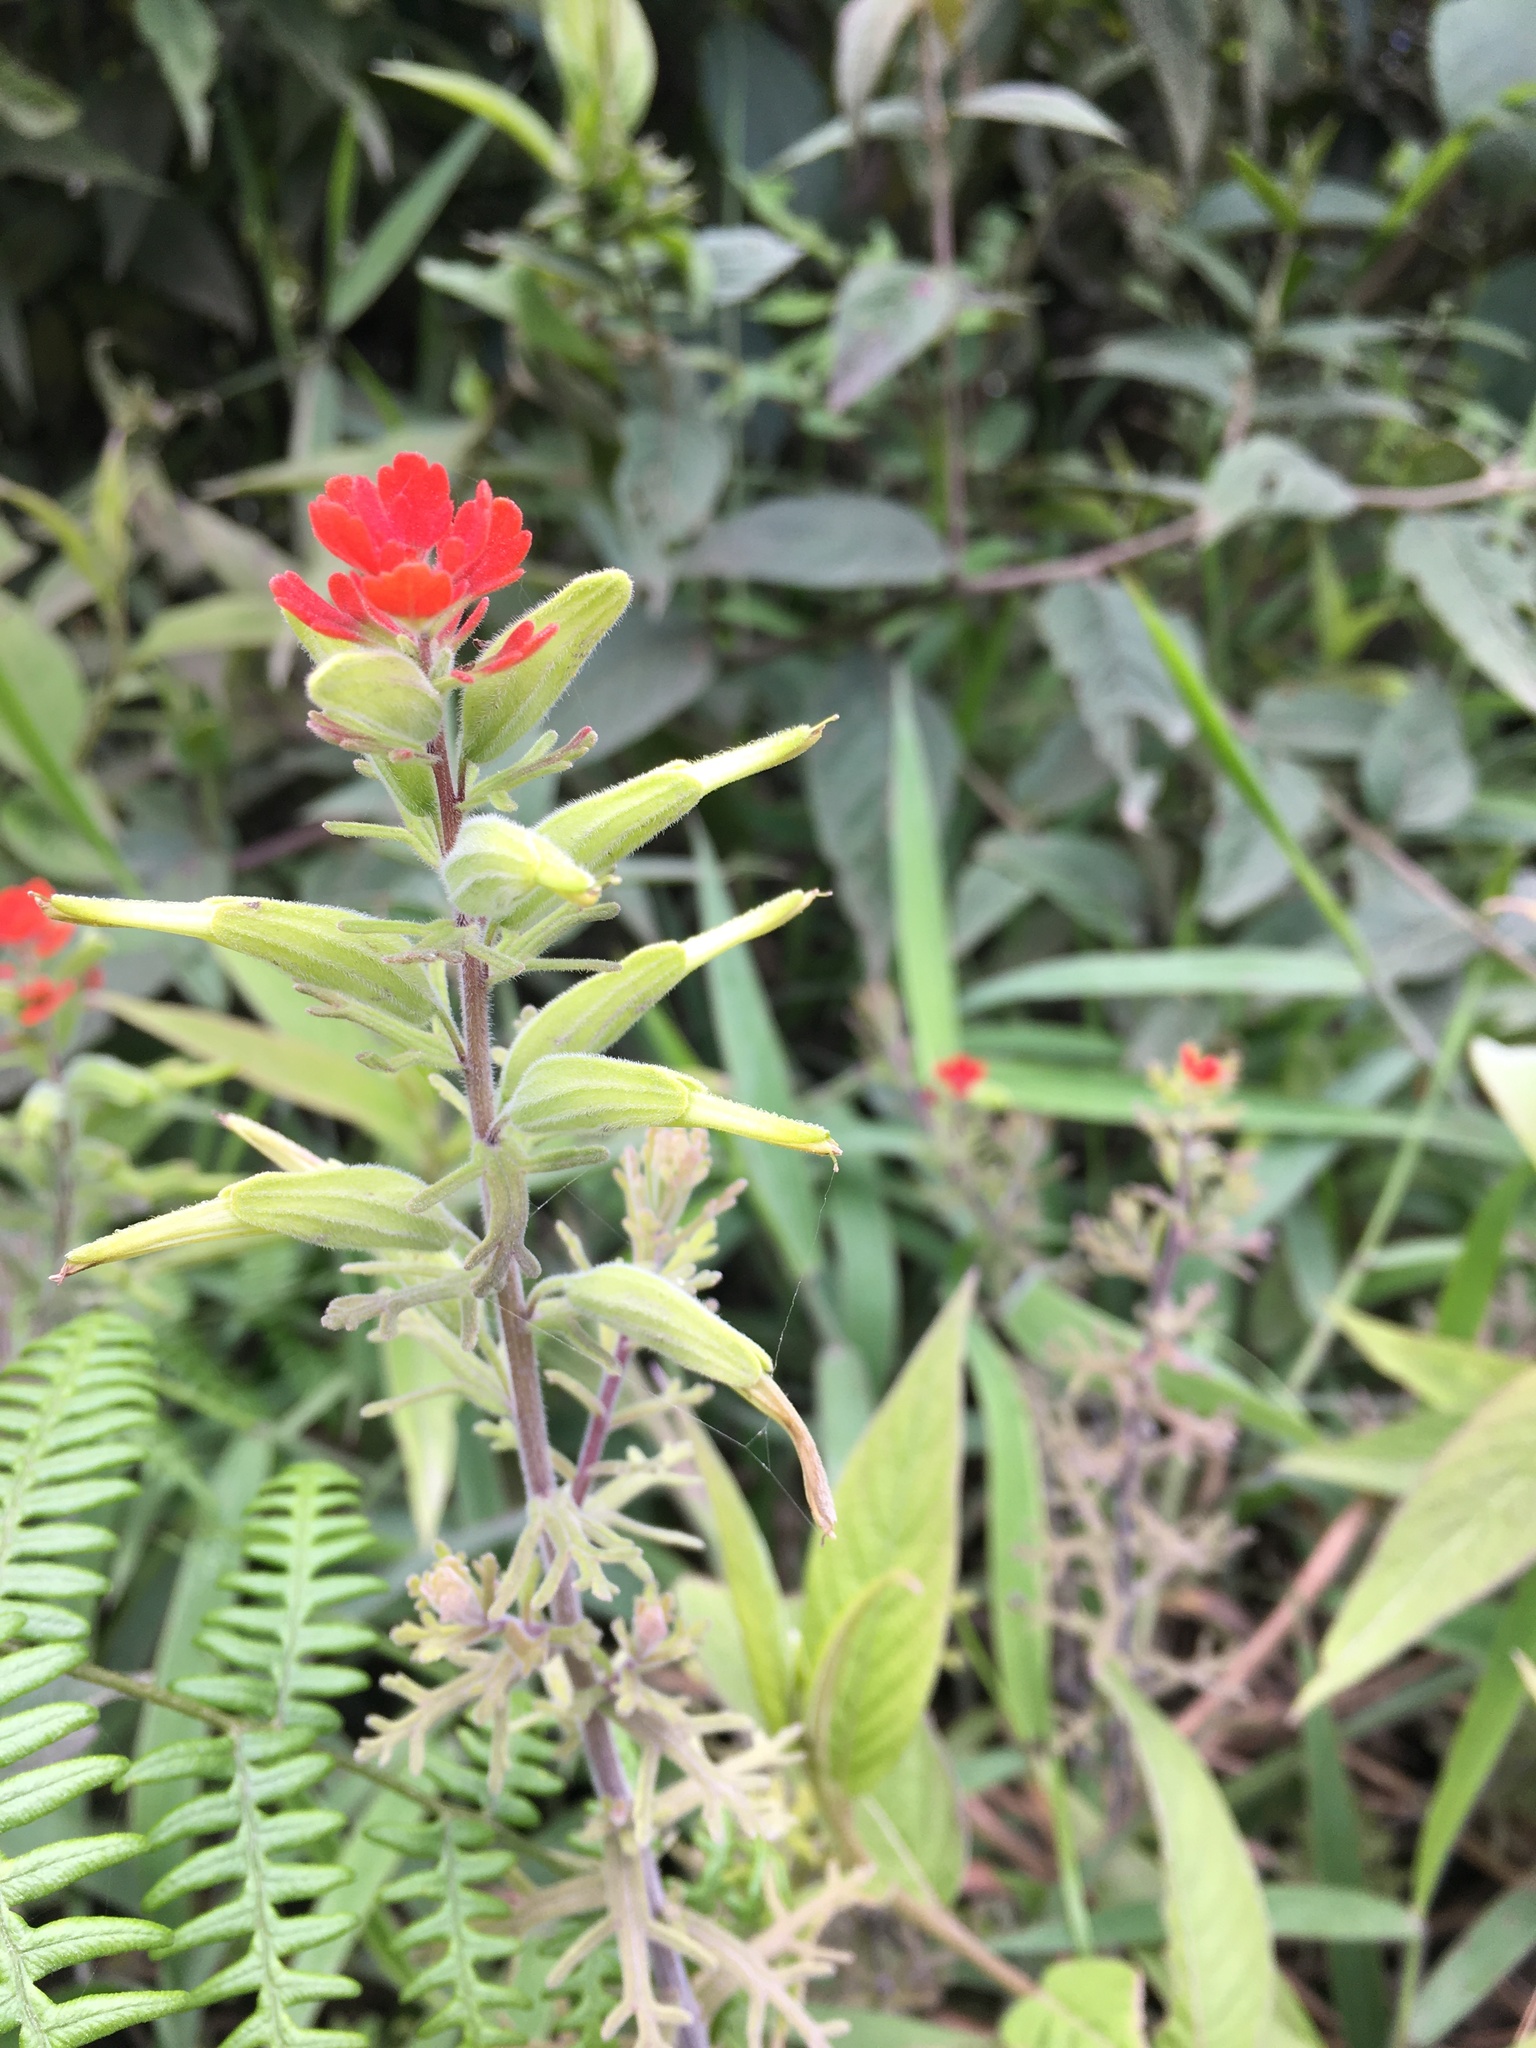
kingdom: Plantae
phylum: Tracheophyta
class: Magnoliopsida
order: Lamiales
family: Orobanchaceae
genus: Castilleja
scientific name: Castilleja fissifolia
